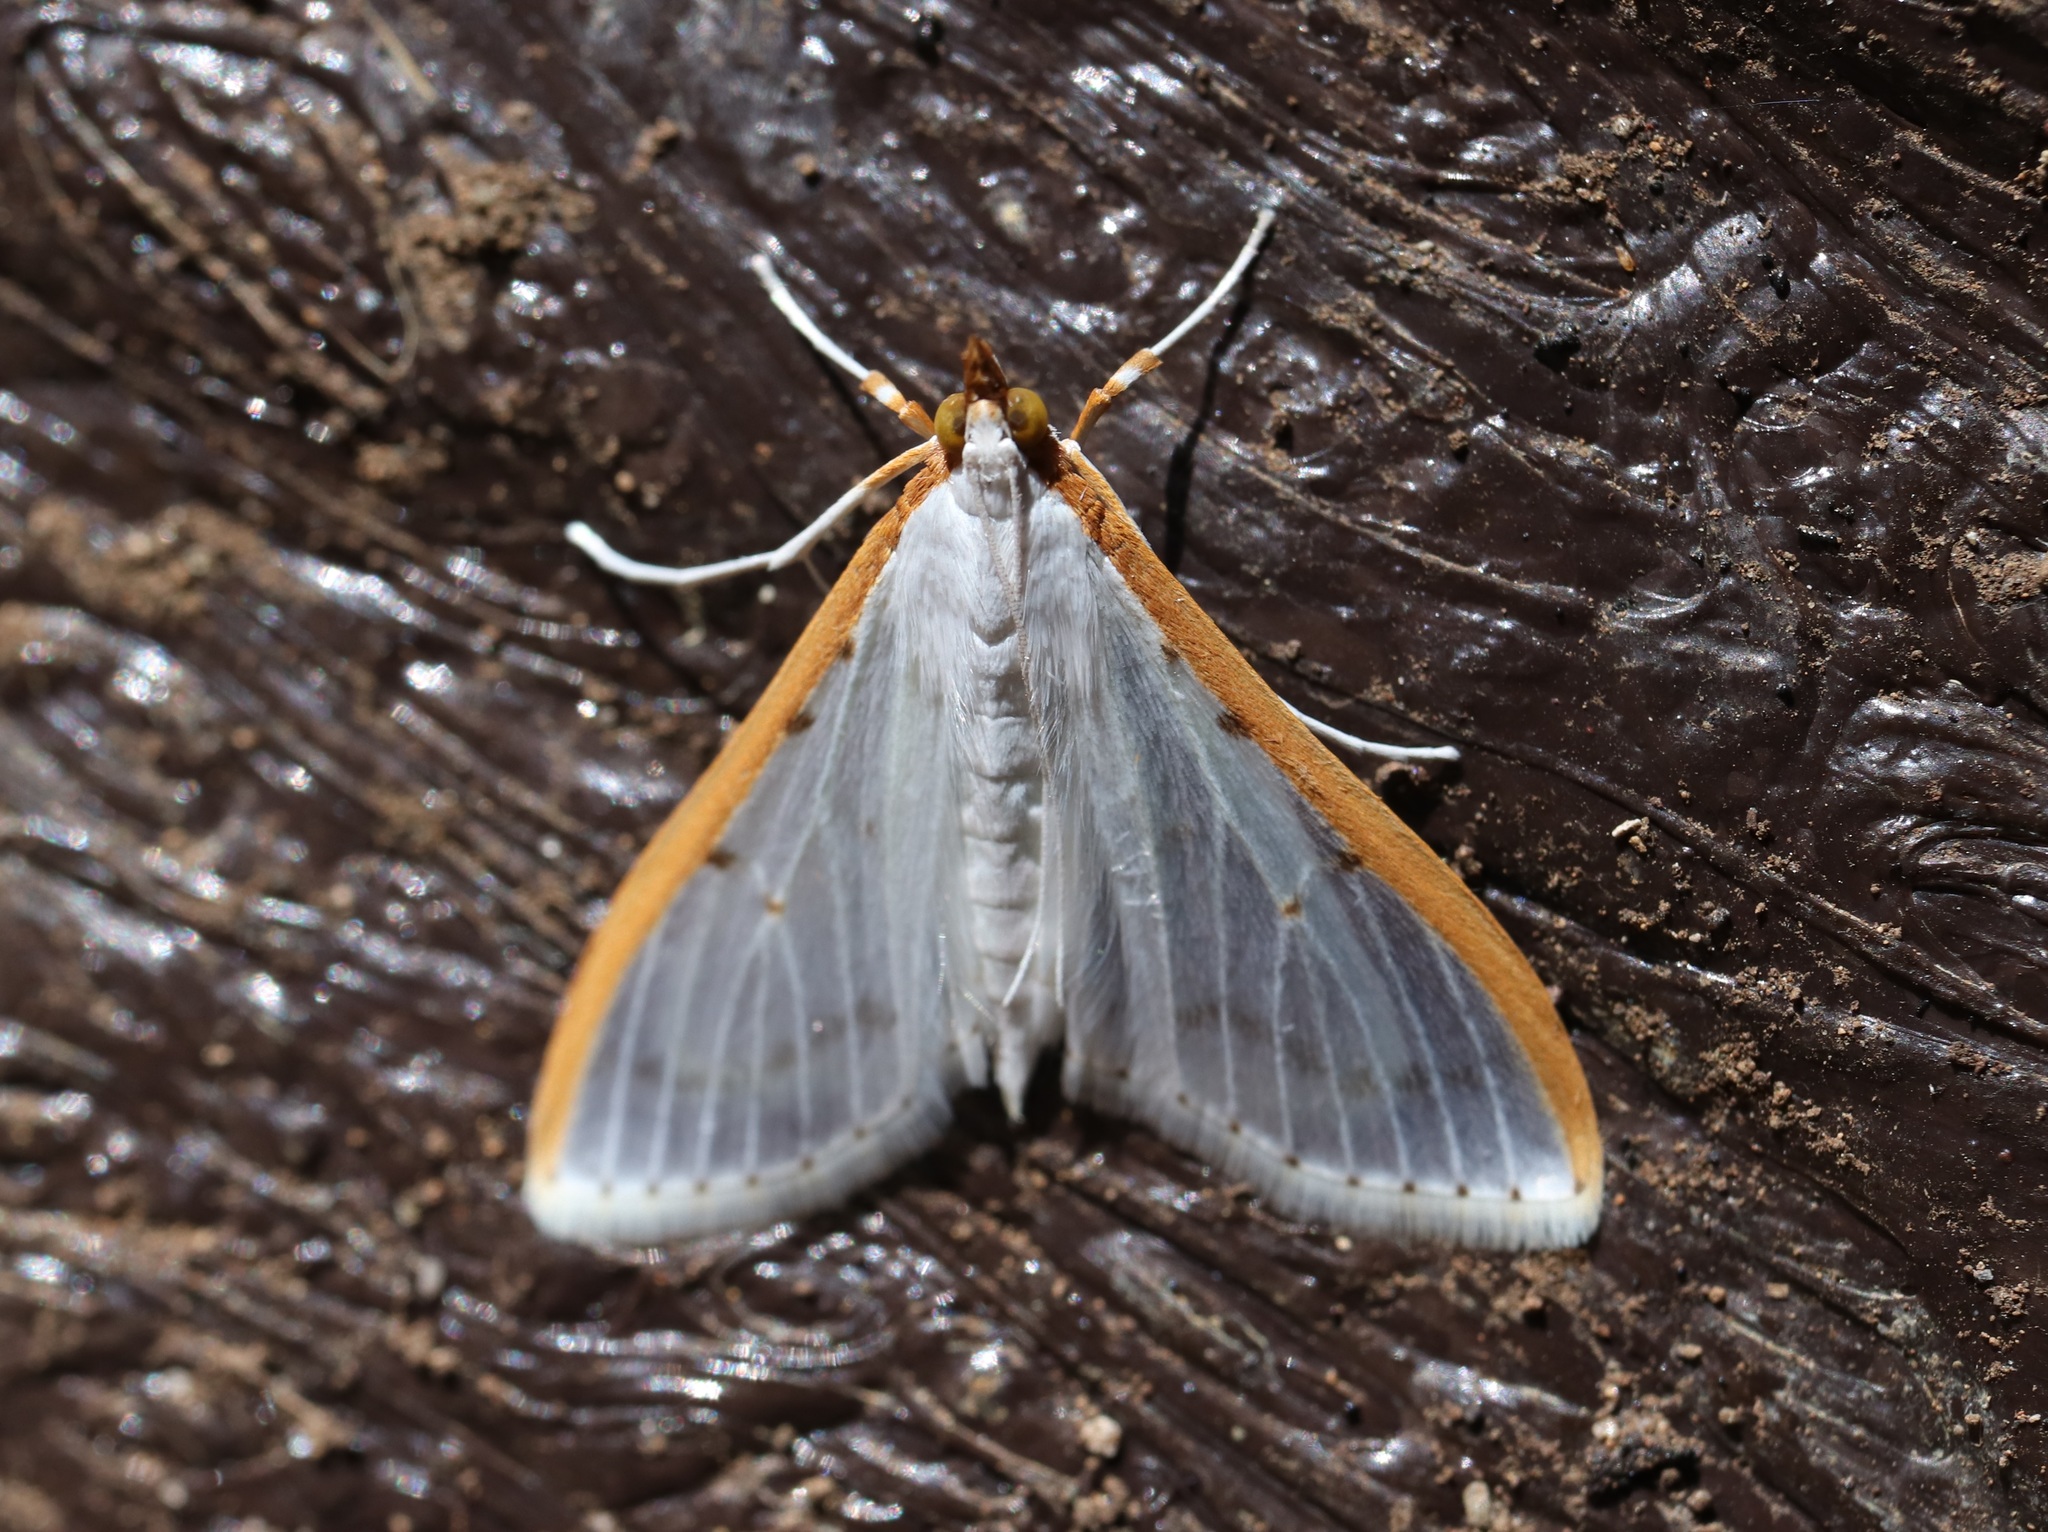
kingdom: Animalia
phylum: Arthropoda
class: Insecta
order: Lepidoptera
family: Crambidae
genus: Palpita
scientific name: Palpita nigropunctalis
